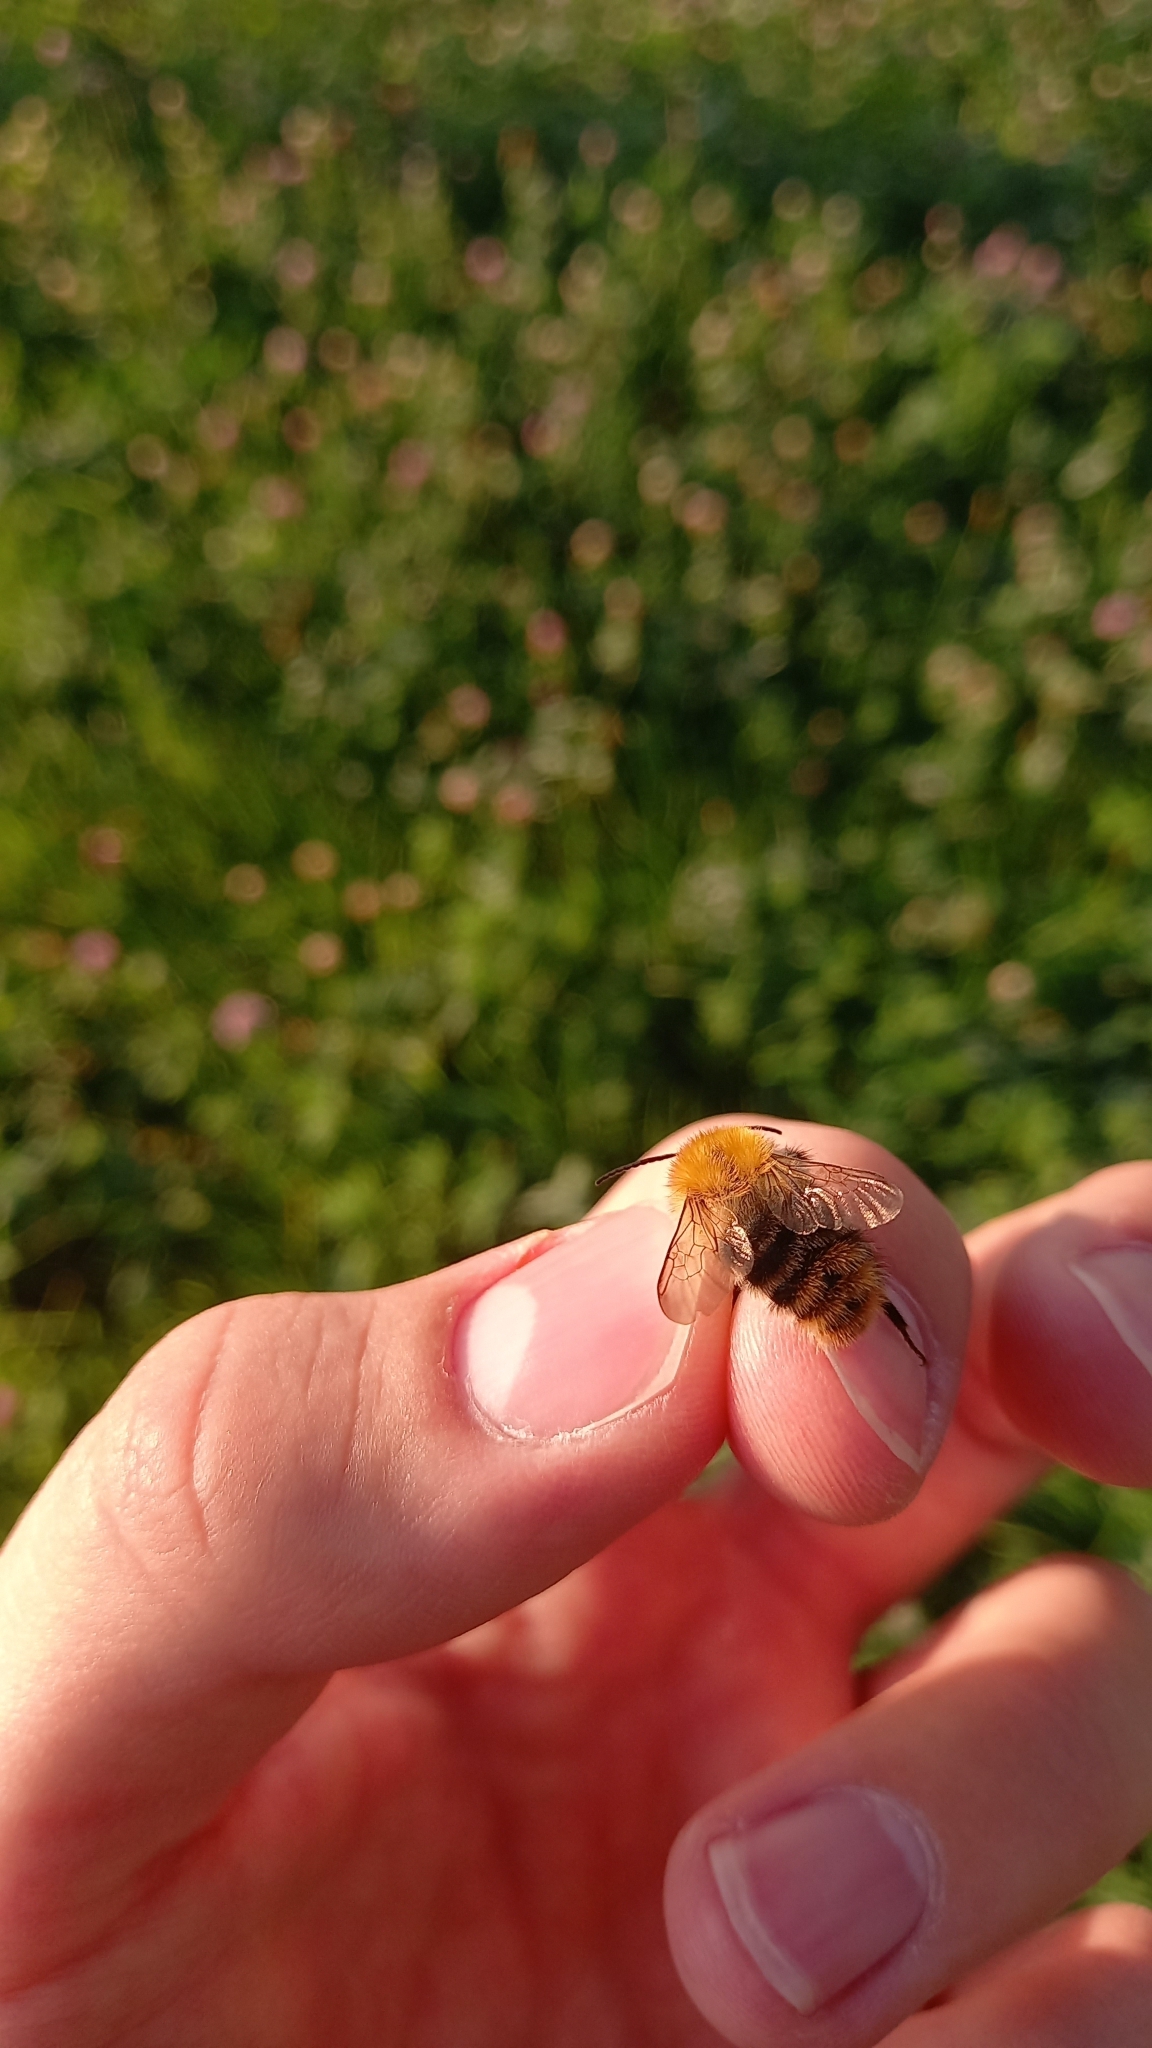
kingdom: Animalia
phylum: Arthropoda
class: Insecta
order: Hymenoptera
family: Apidae
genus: Bombus
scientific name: Bombus pascuorum
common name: Common carder bee
